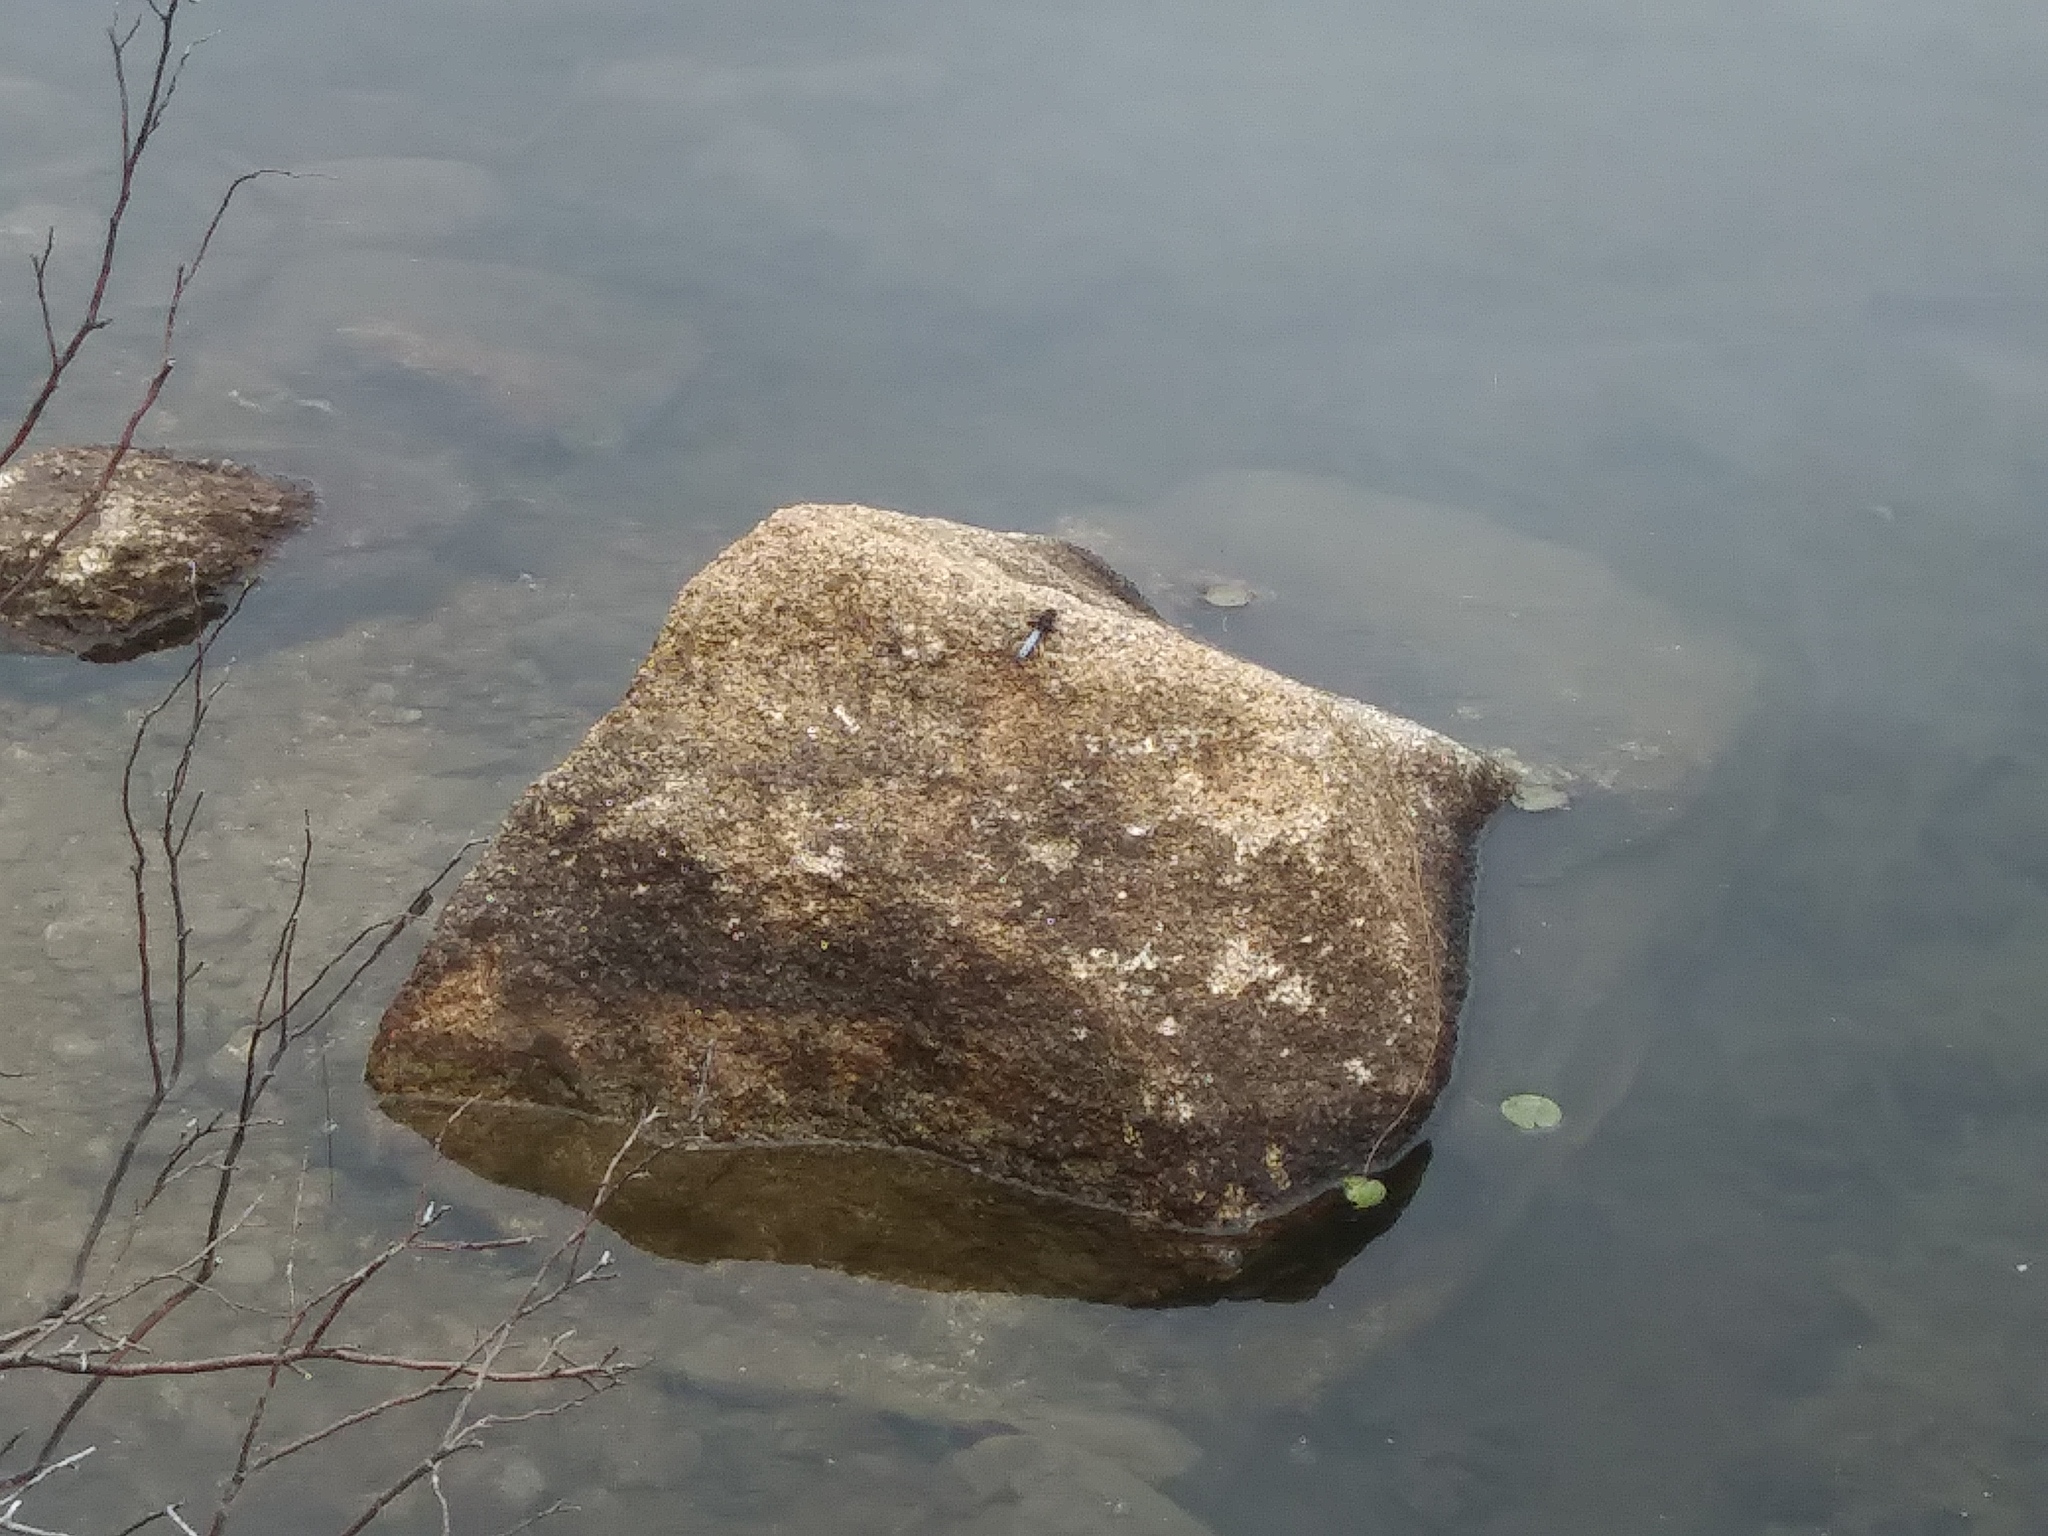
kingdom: Animalia
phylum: Arthropoda
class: Insecta
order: Odonata
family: Libellulidae
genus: Ladona
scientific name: Ladona exusta
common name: Libellule embrasée
